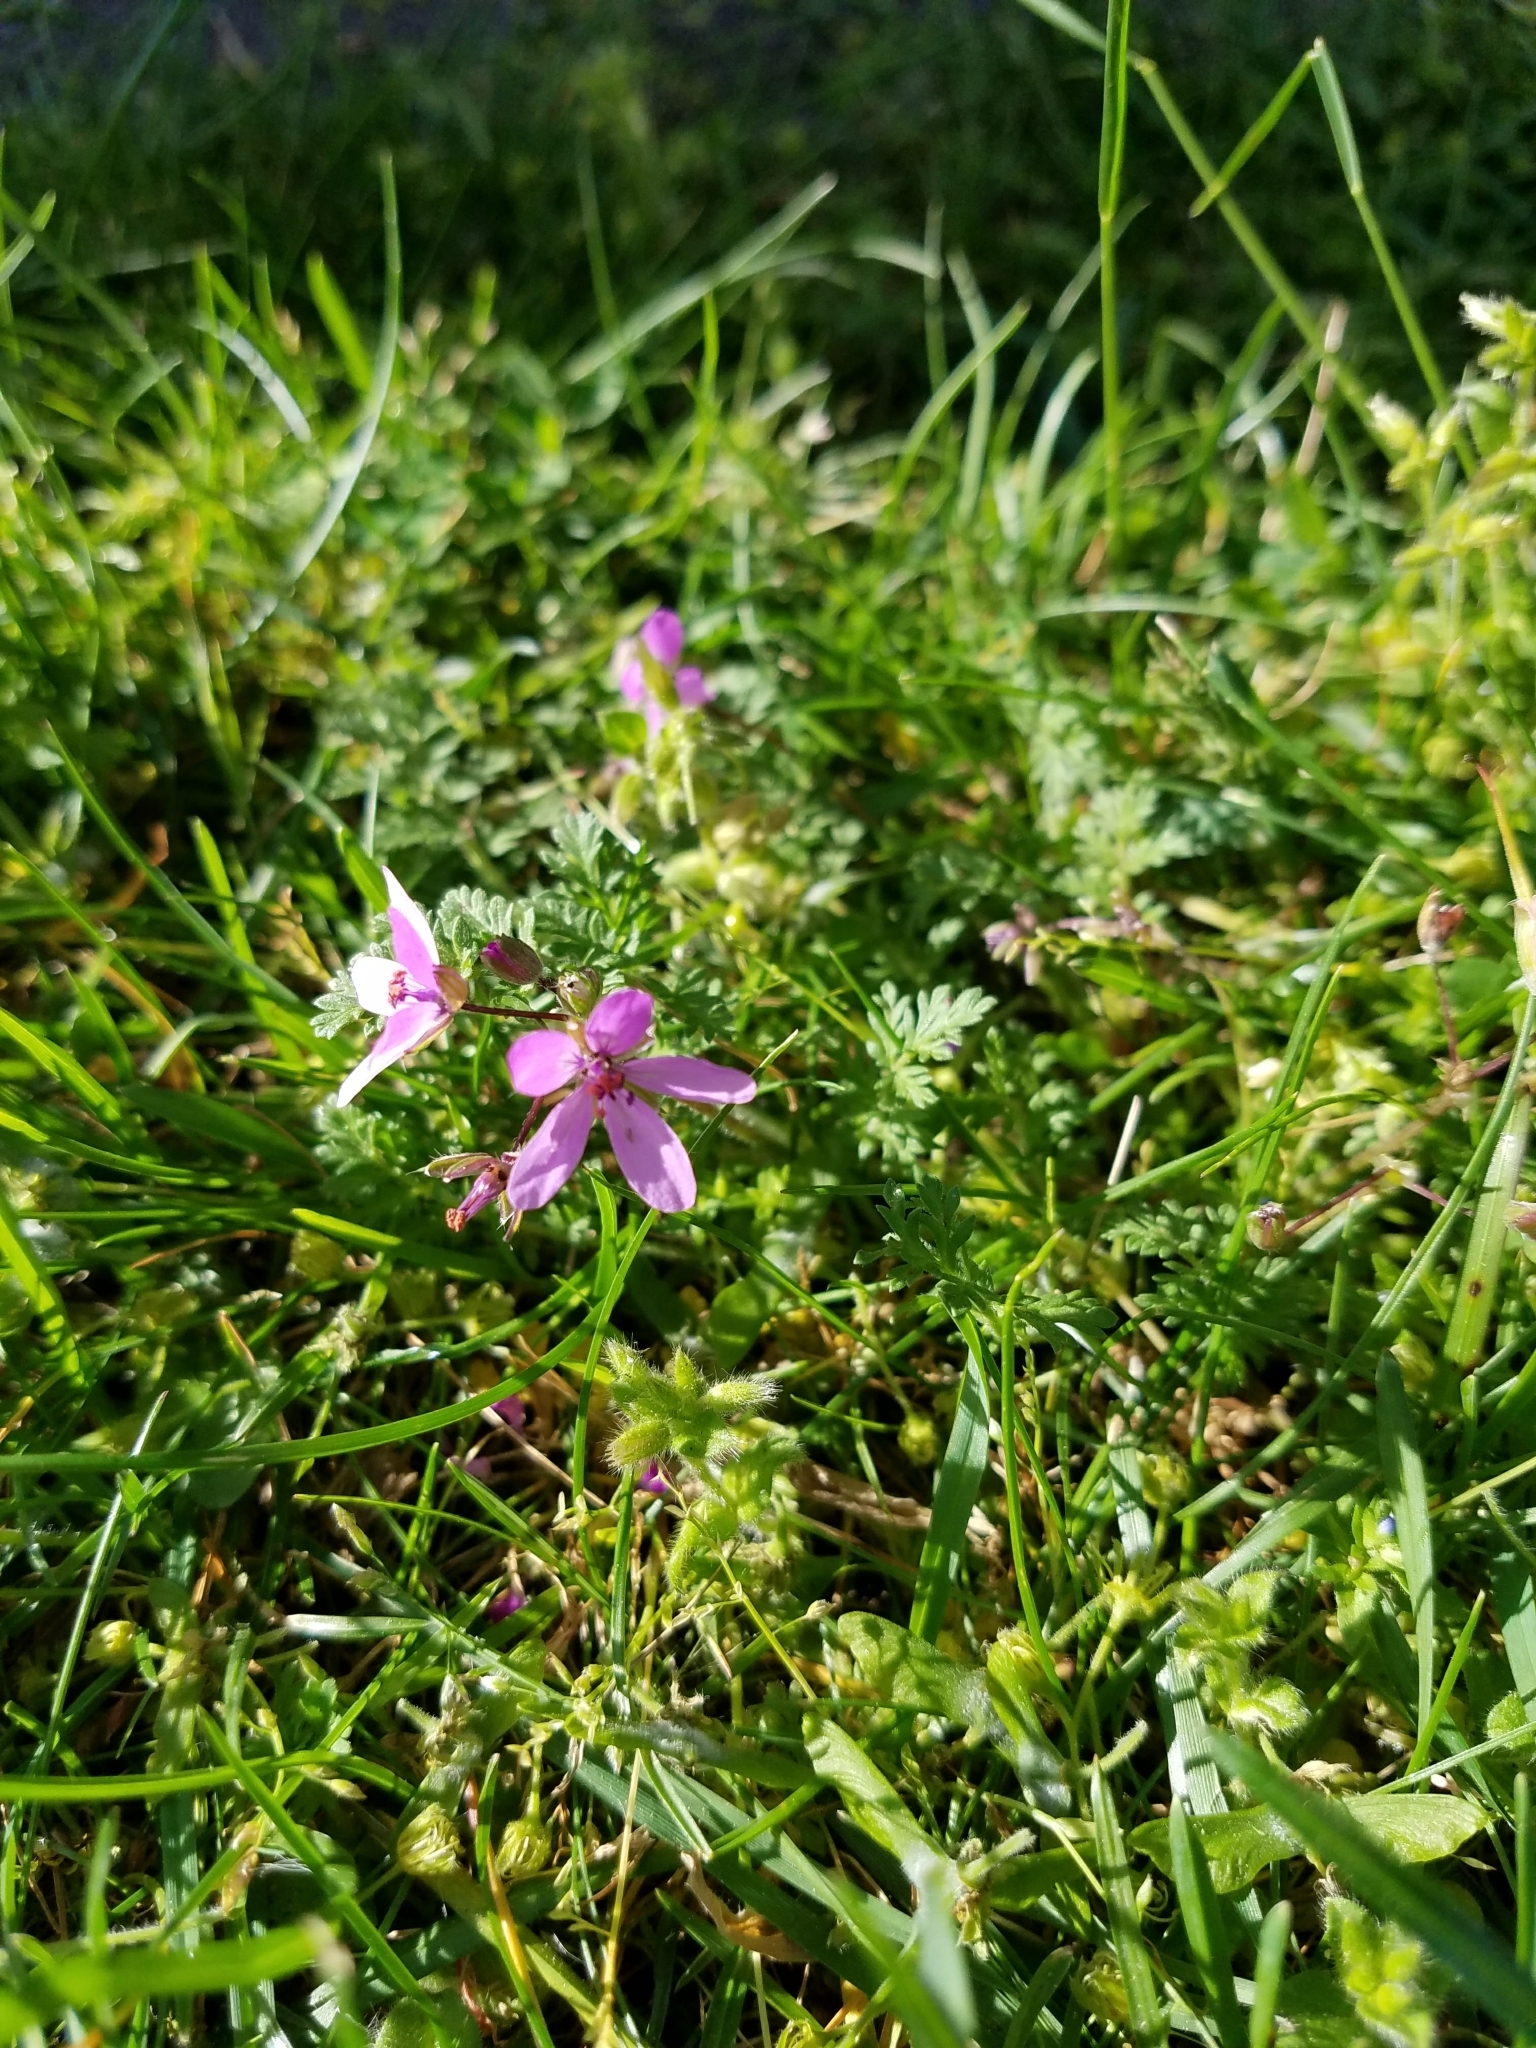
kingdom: Plantae
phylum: Tracheophyta
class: Magnoliopsida
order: Geraniales
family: Geraniaceae
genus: Erodium
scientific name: Erodium cicutarium
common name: Common stork's-bill
